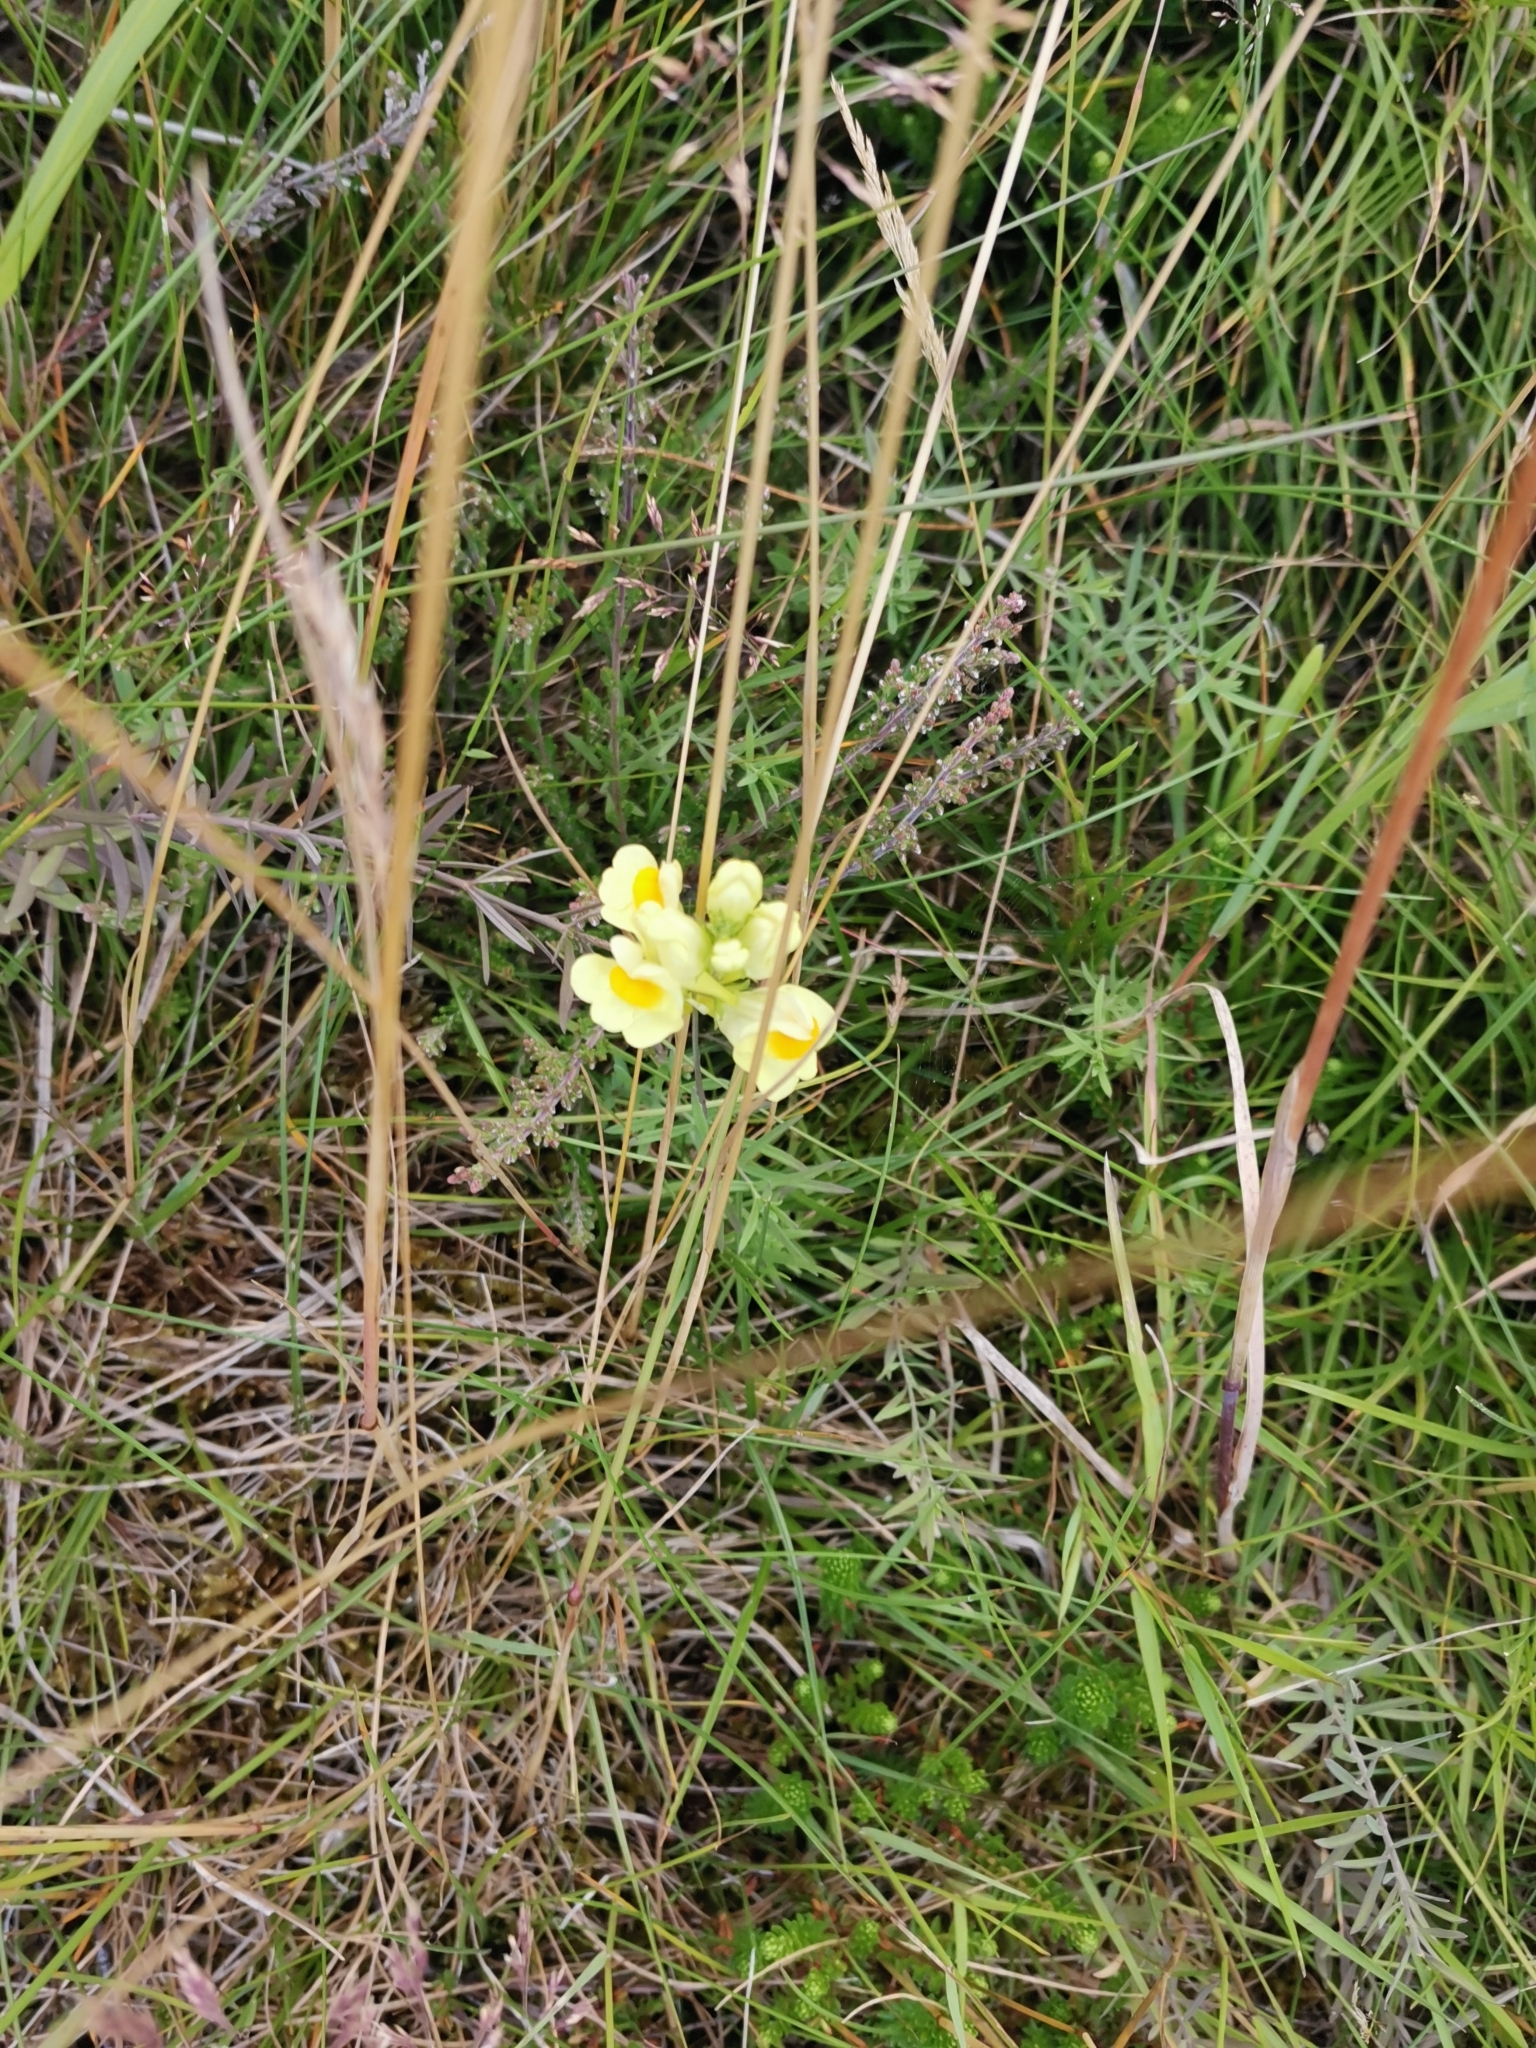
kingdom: Plantae
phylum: Tracheophyta
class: Magnoliopsida
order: Lamiales
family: Plantaginaceae
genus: Linaria
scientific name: Linaria vulgaris
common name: Butter and eggs
